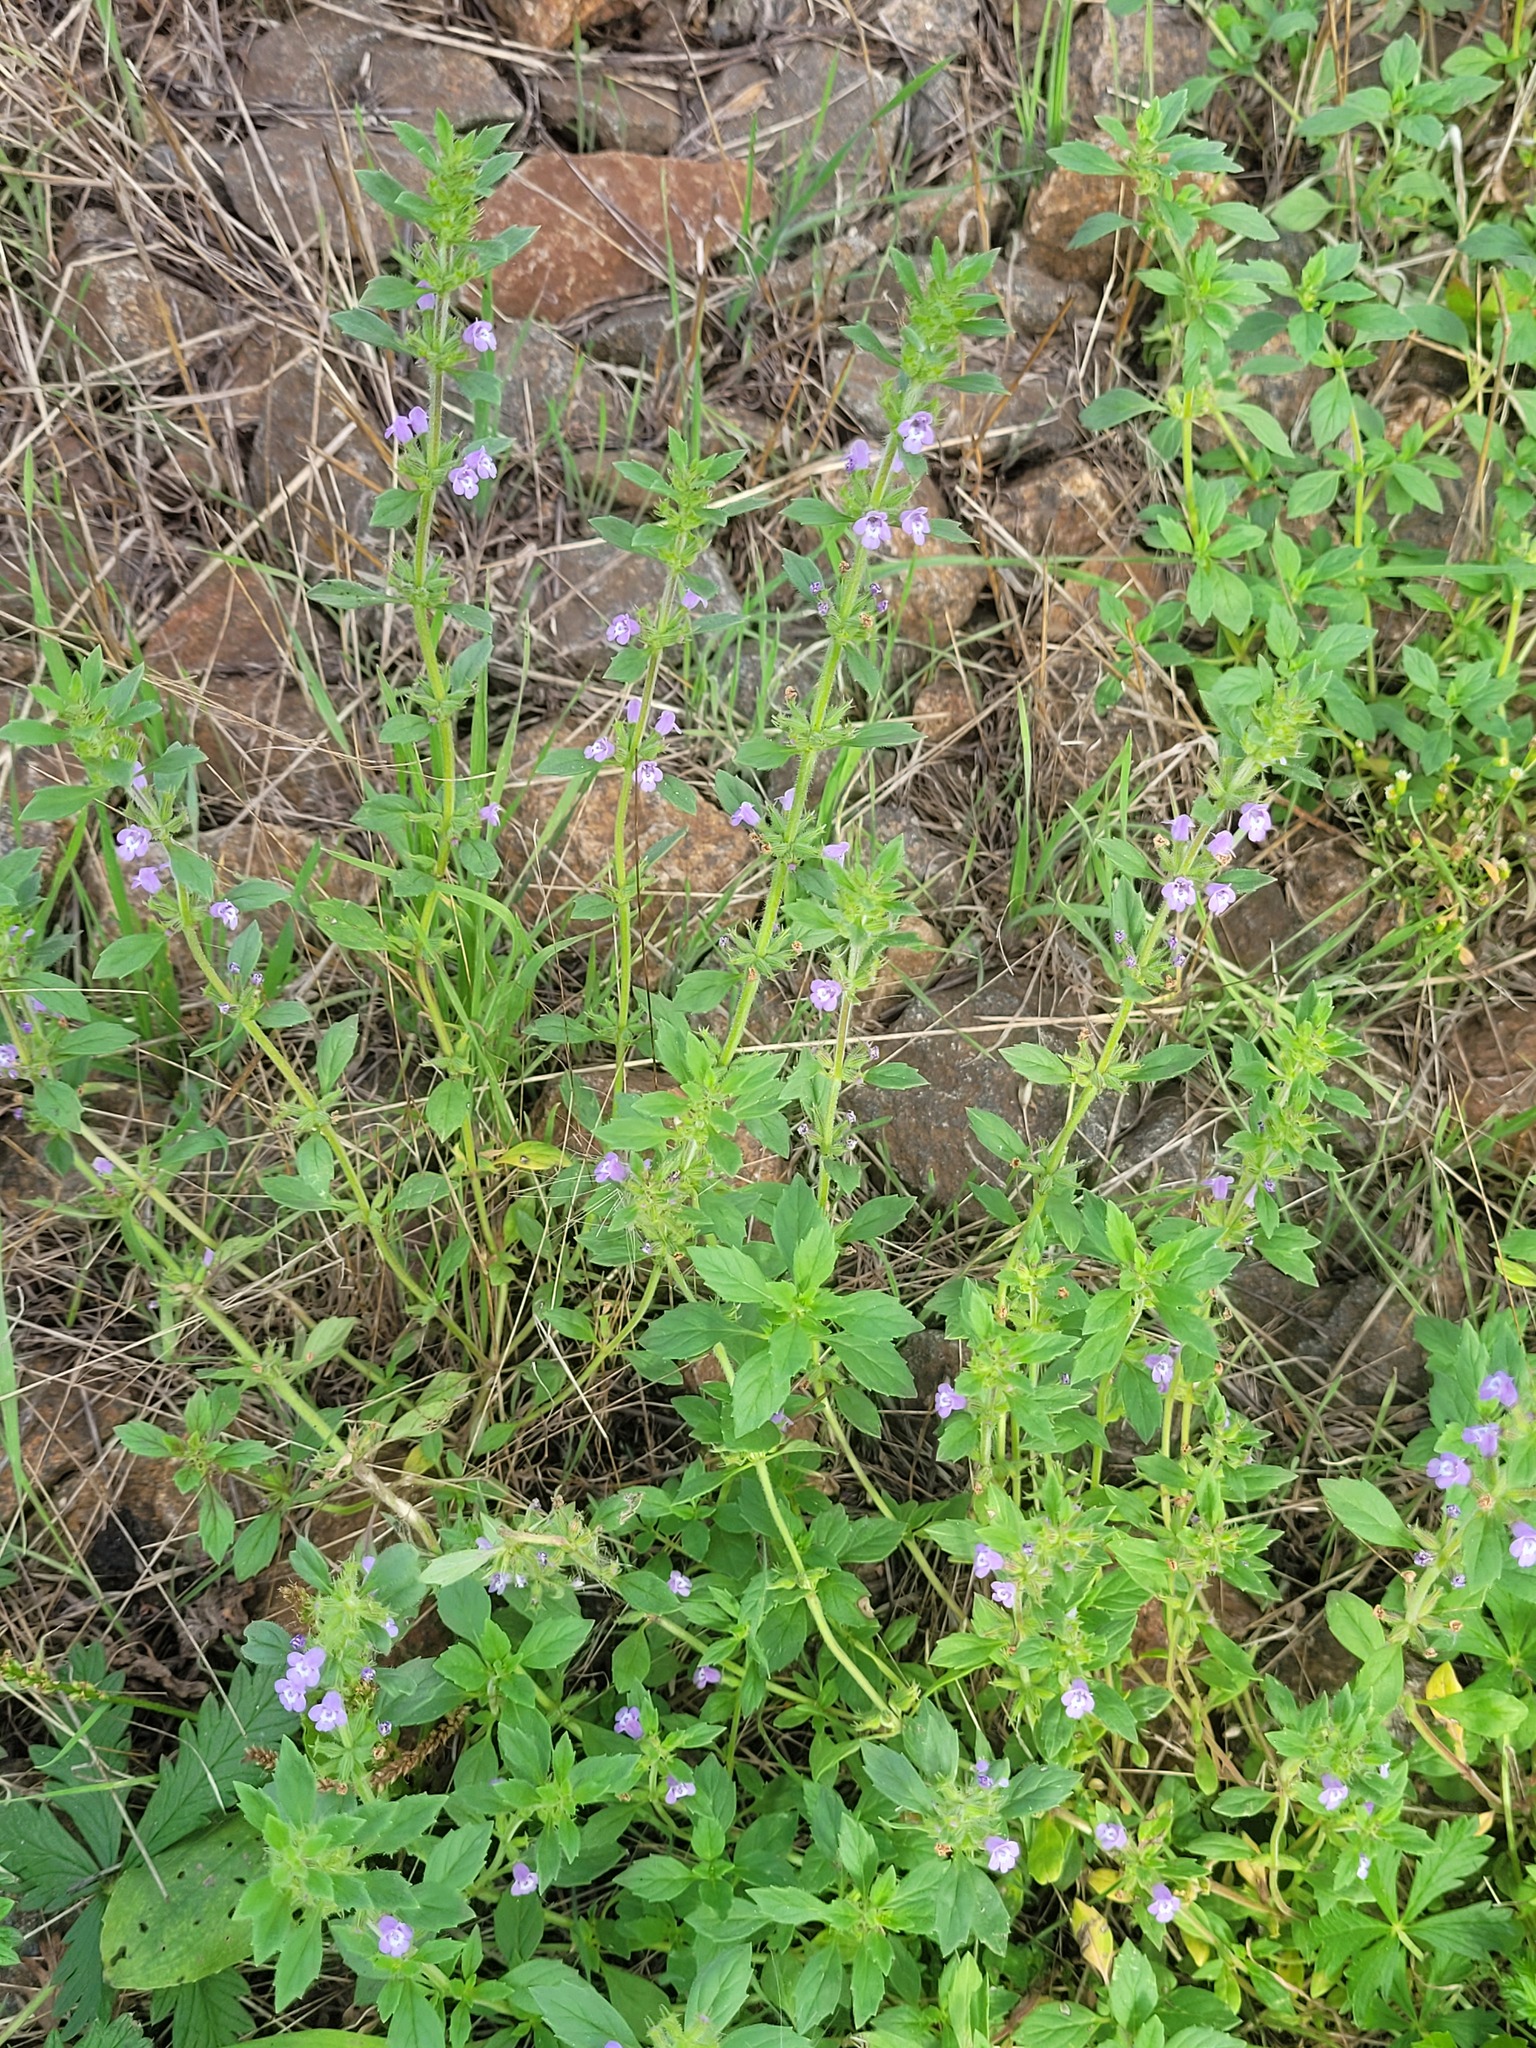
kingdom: Plantae
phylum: Tracheophyta
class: Magnoliopsida
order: Lamiales
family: Lamiaceae
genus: Clinopodium
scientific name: Clinopodium acinos
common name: Basil thyme
